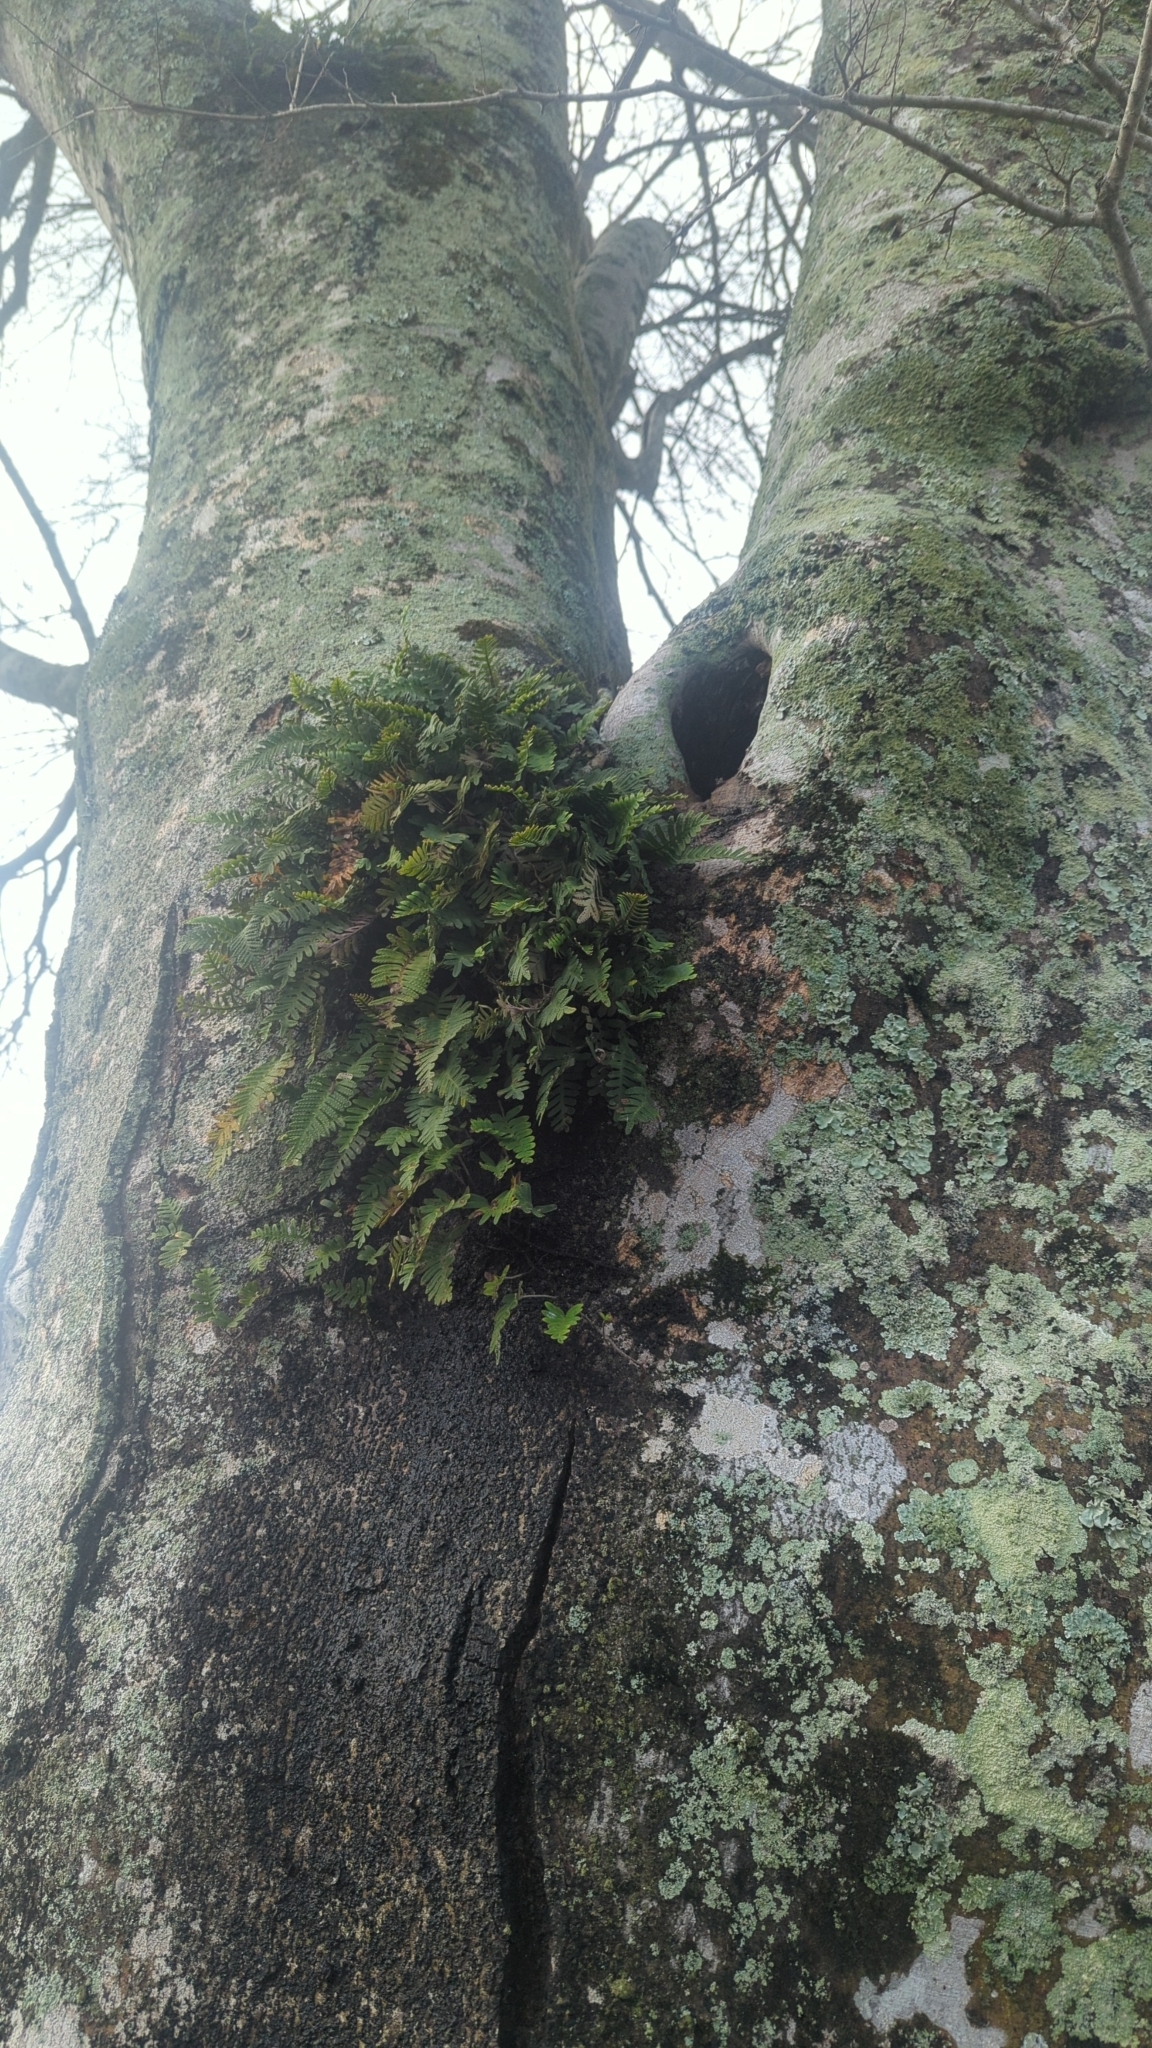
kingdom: Plantae
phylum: Tracheophyta
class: Polypodiopsida
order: Polypodiales
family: Polypodiaceae
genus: Pleopeltis
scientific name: Pleopeltis michauxiana
